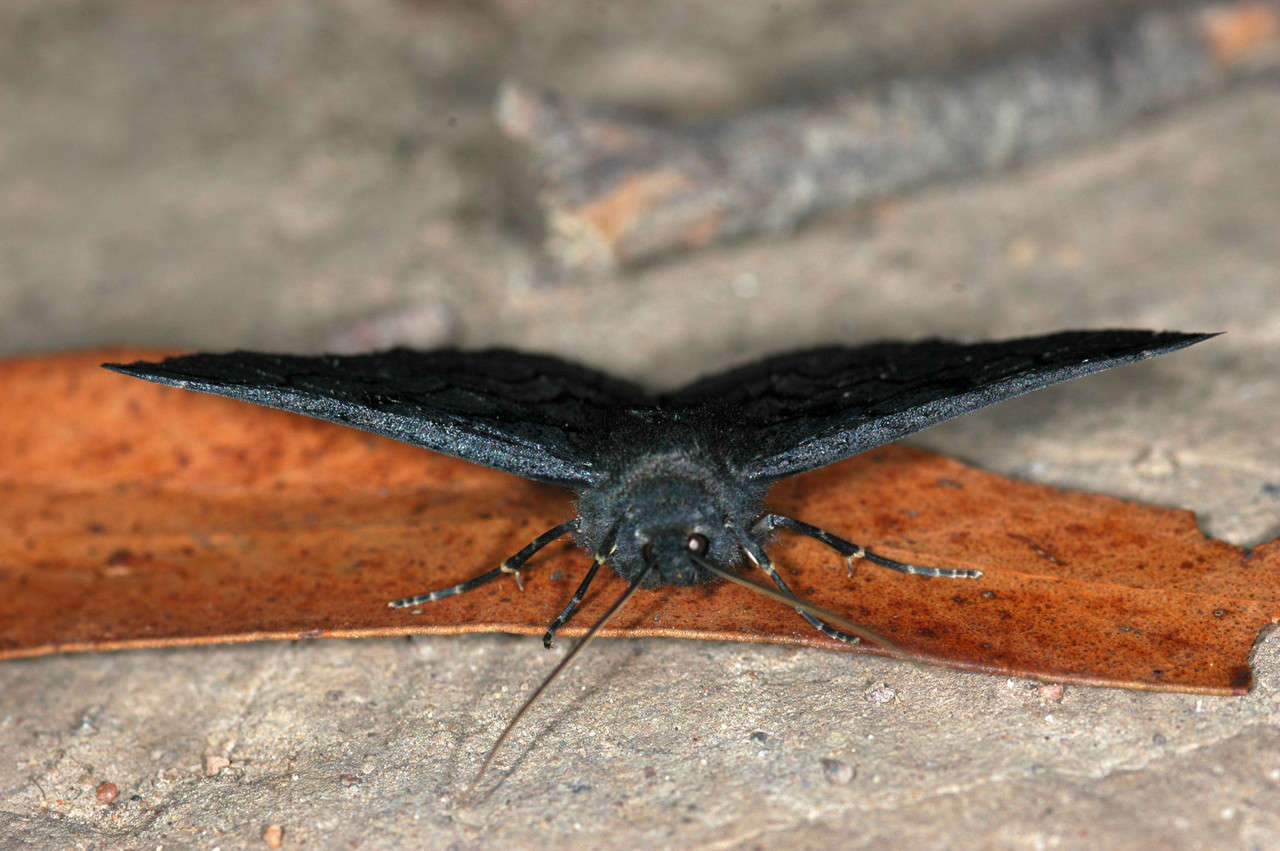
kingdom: Animalia
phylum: Arthropoda
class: Insecta
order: Lepidoptera
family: Geometridae
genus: Melanodes
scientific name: Melanodes anthracitaria
